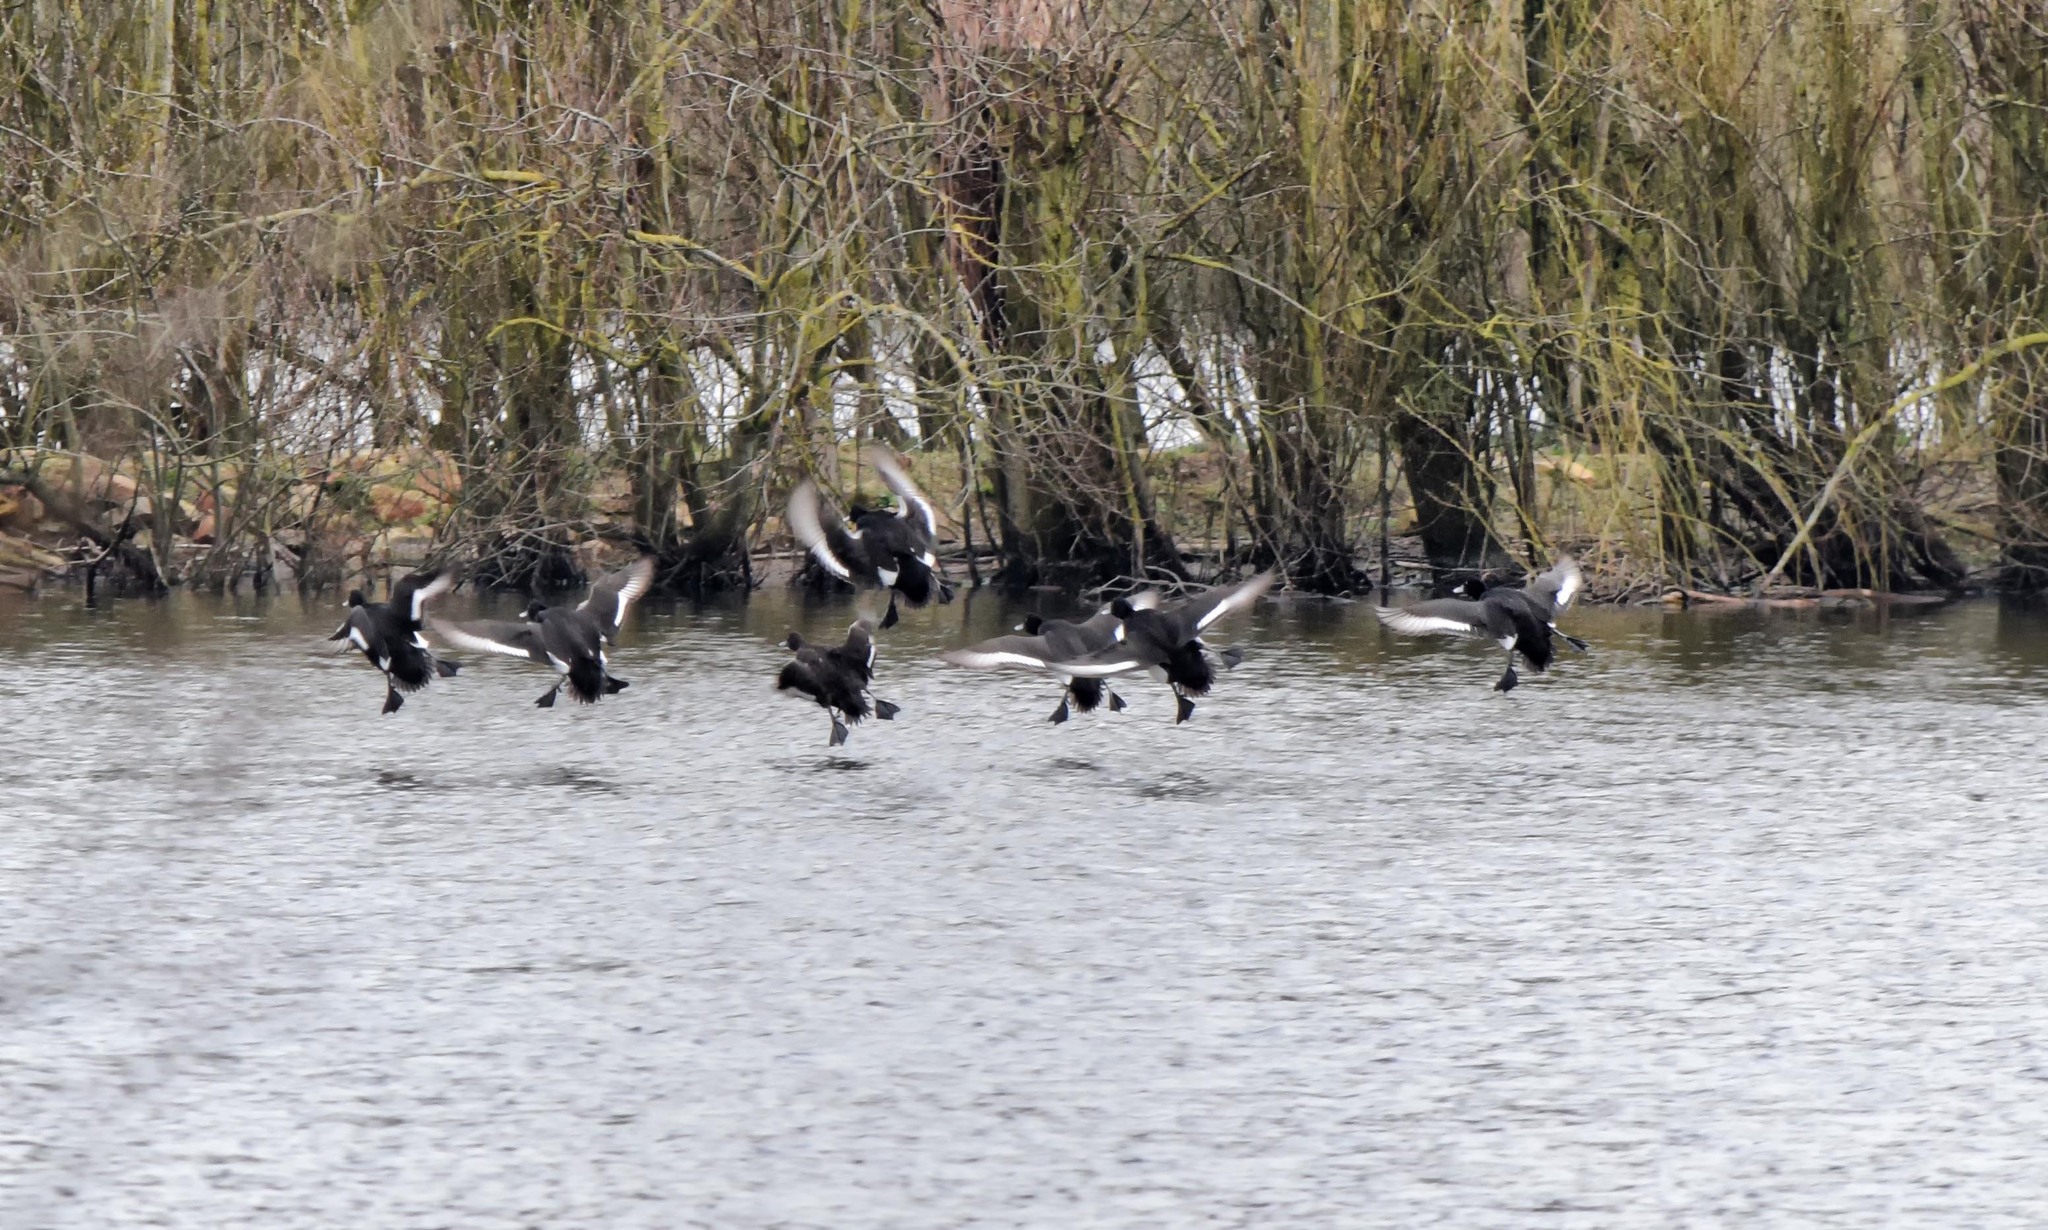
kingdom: Animalia
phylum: Chordata
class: Aves
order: Anseriformes
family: Anatidae
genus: Aythya
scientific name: Aythya fuligula
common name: Tufted duck
